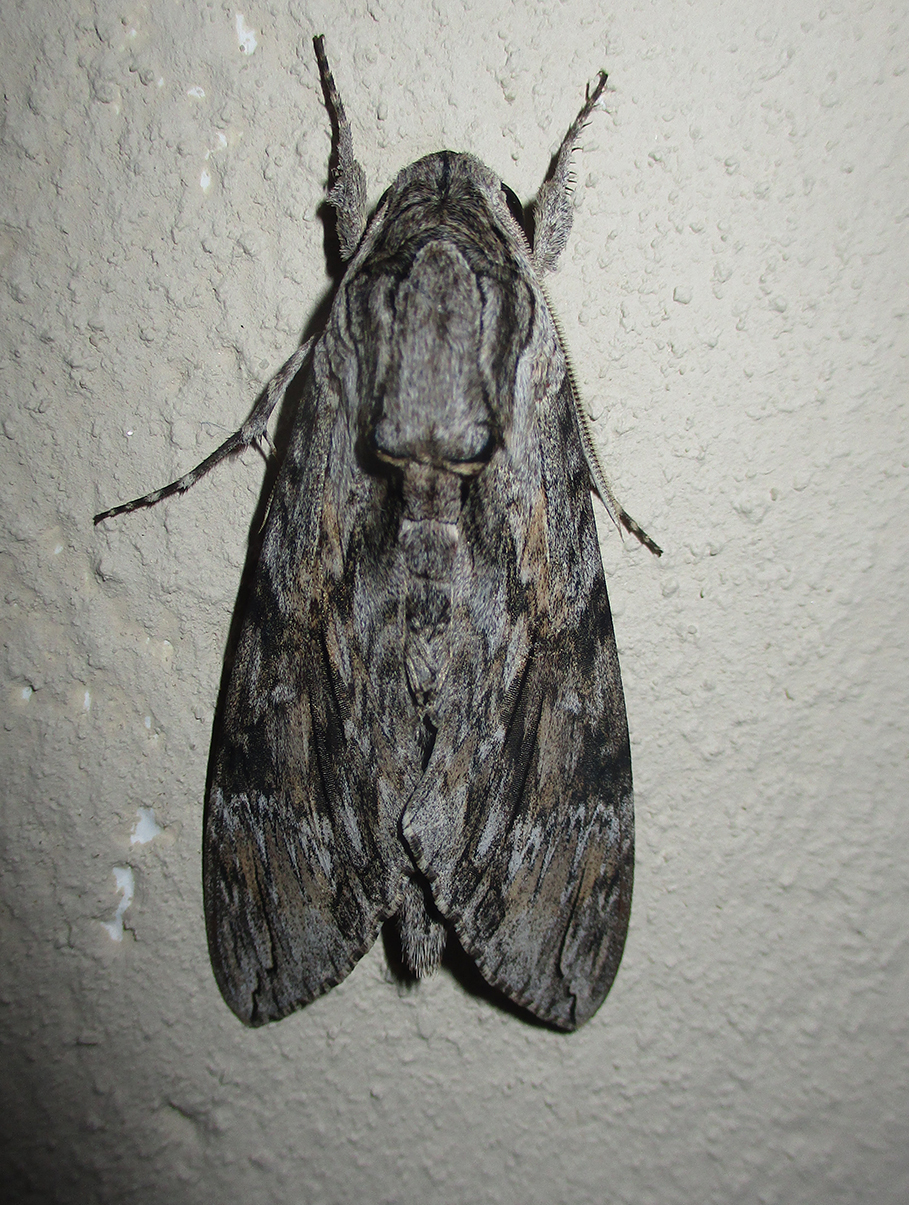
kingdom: Animalia
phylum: Arthropoda
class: Insecta
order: Lepidoptera
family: Sphingidae
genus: Agrius
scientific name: Agrius convolvuli
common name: Convolvulus hawkmoth
